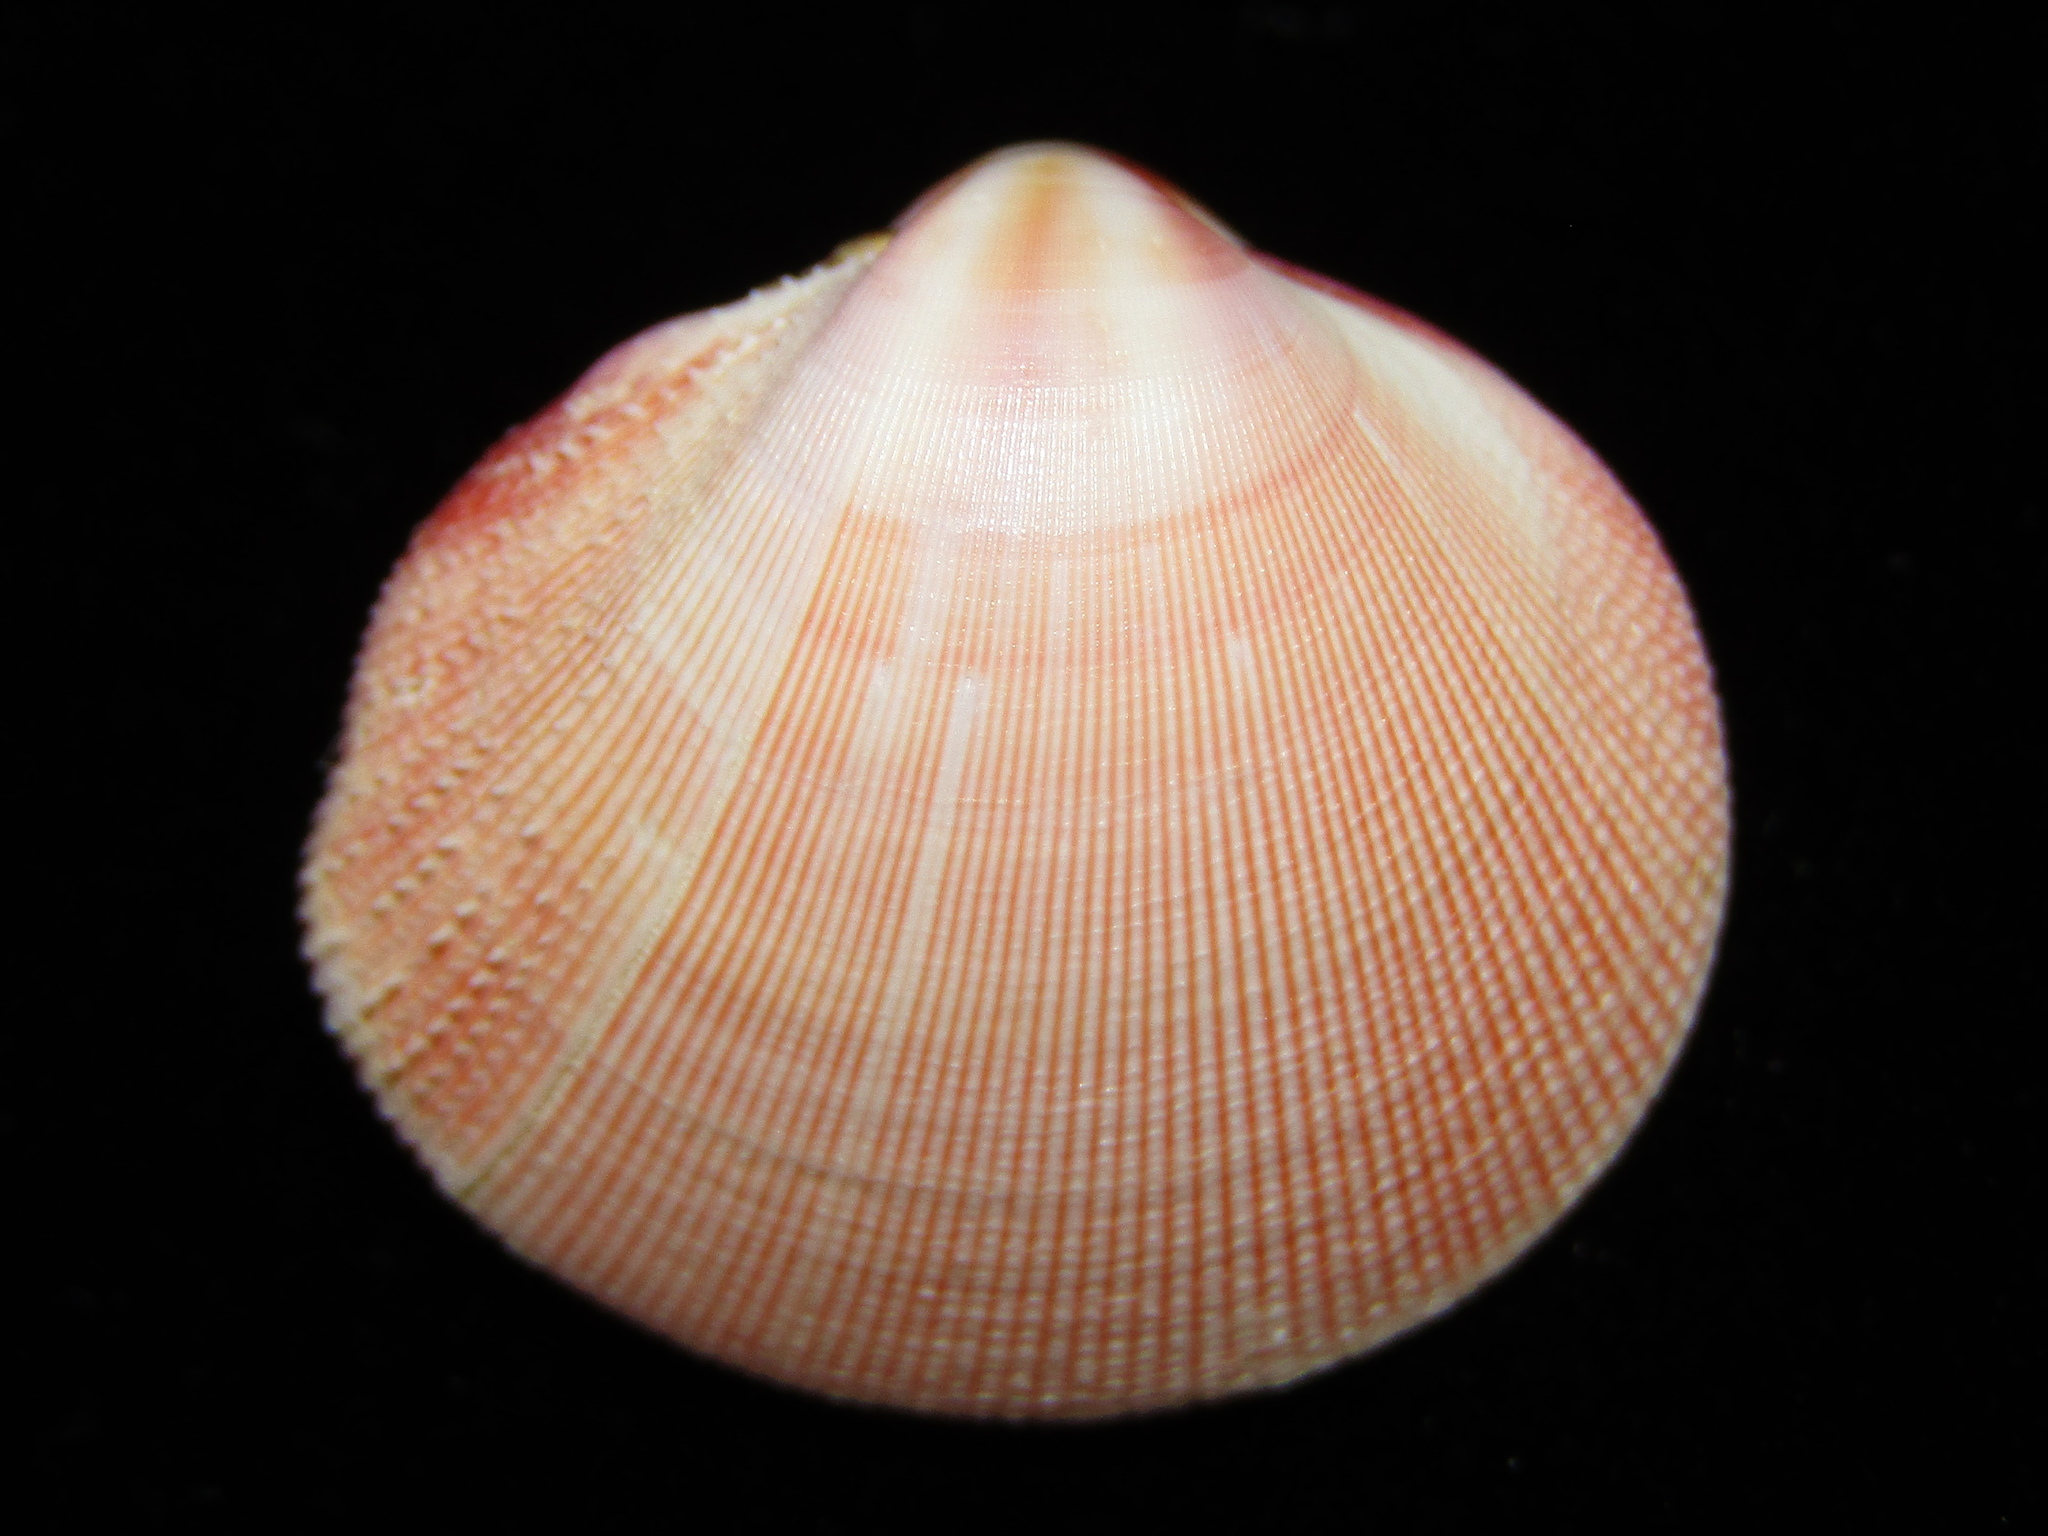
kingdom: Animalia
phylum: Mollusca
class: Bivalvia
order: Cardiida
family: Cardiidae
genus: Pratulum
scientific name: Pratulum pulchellum
